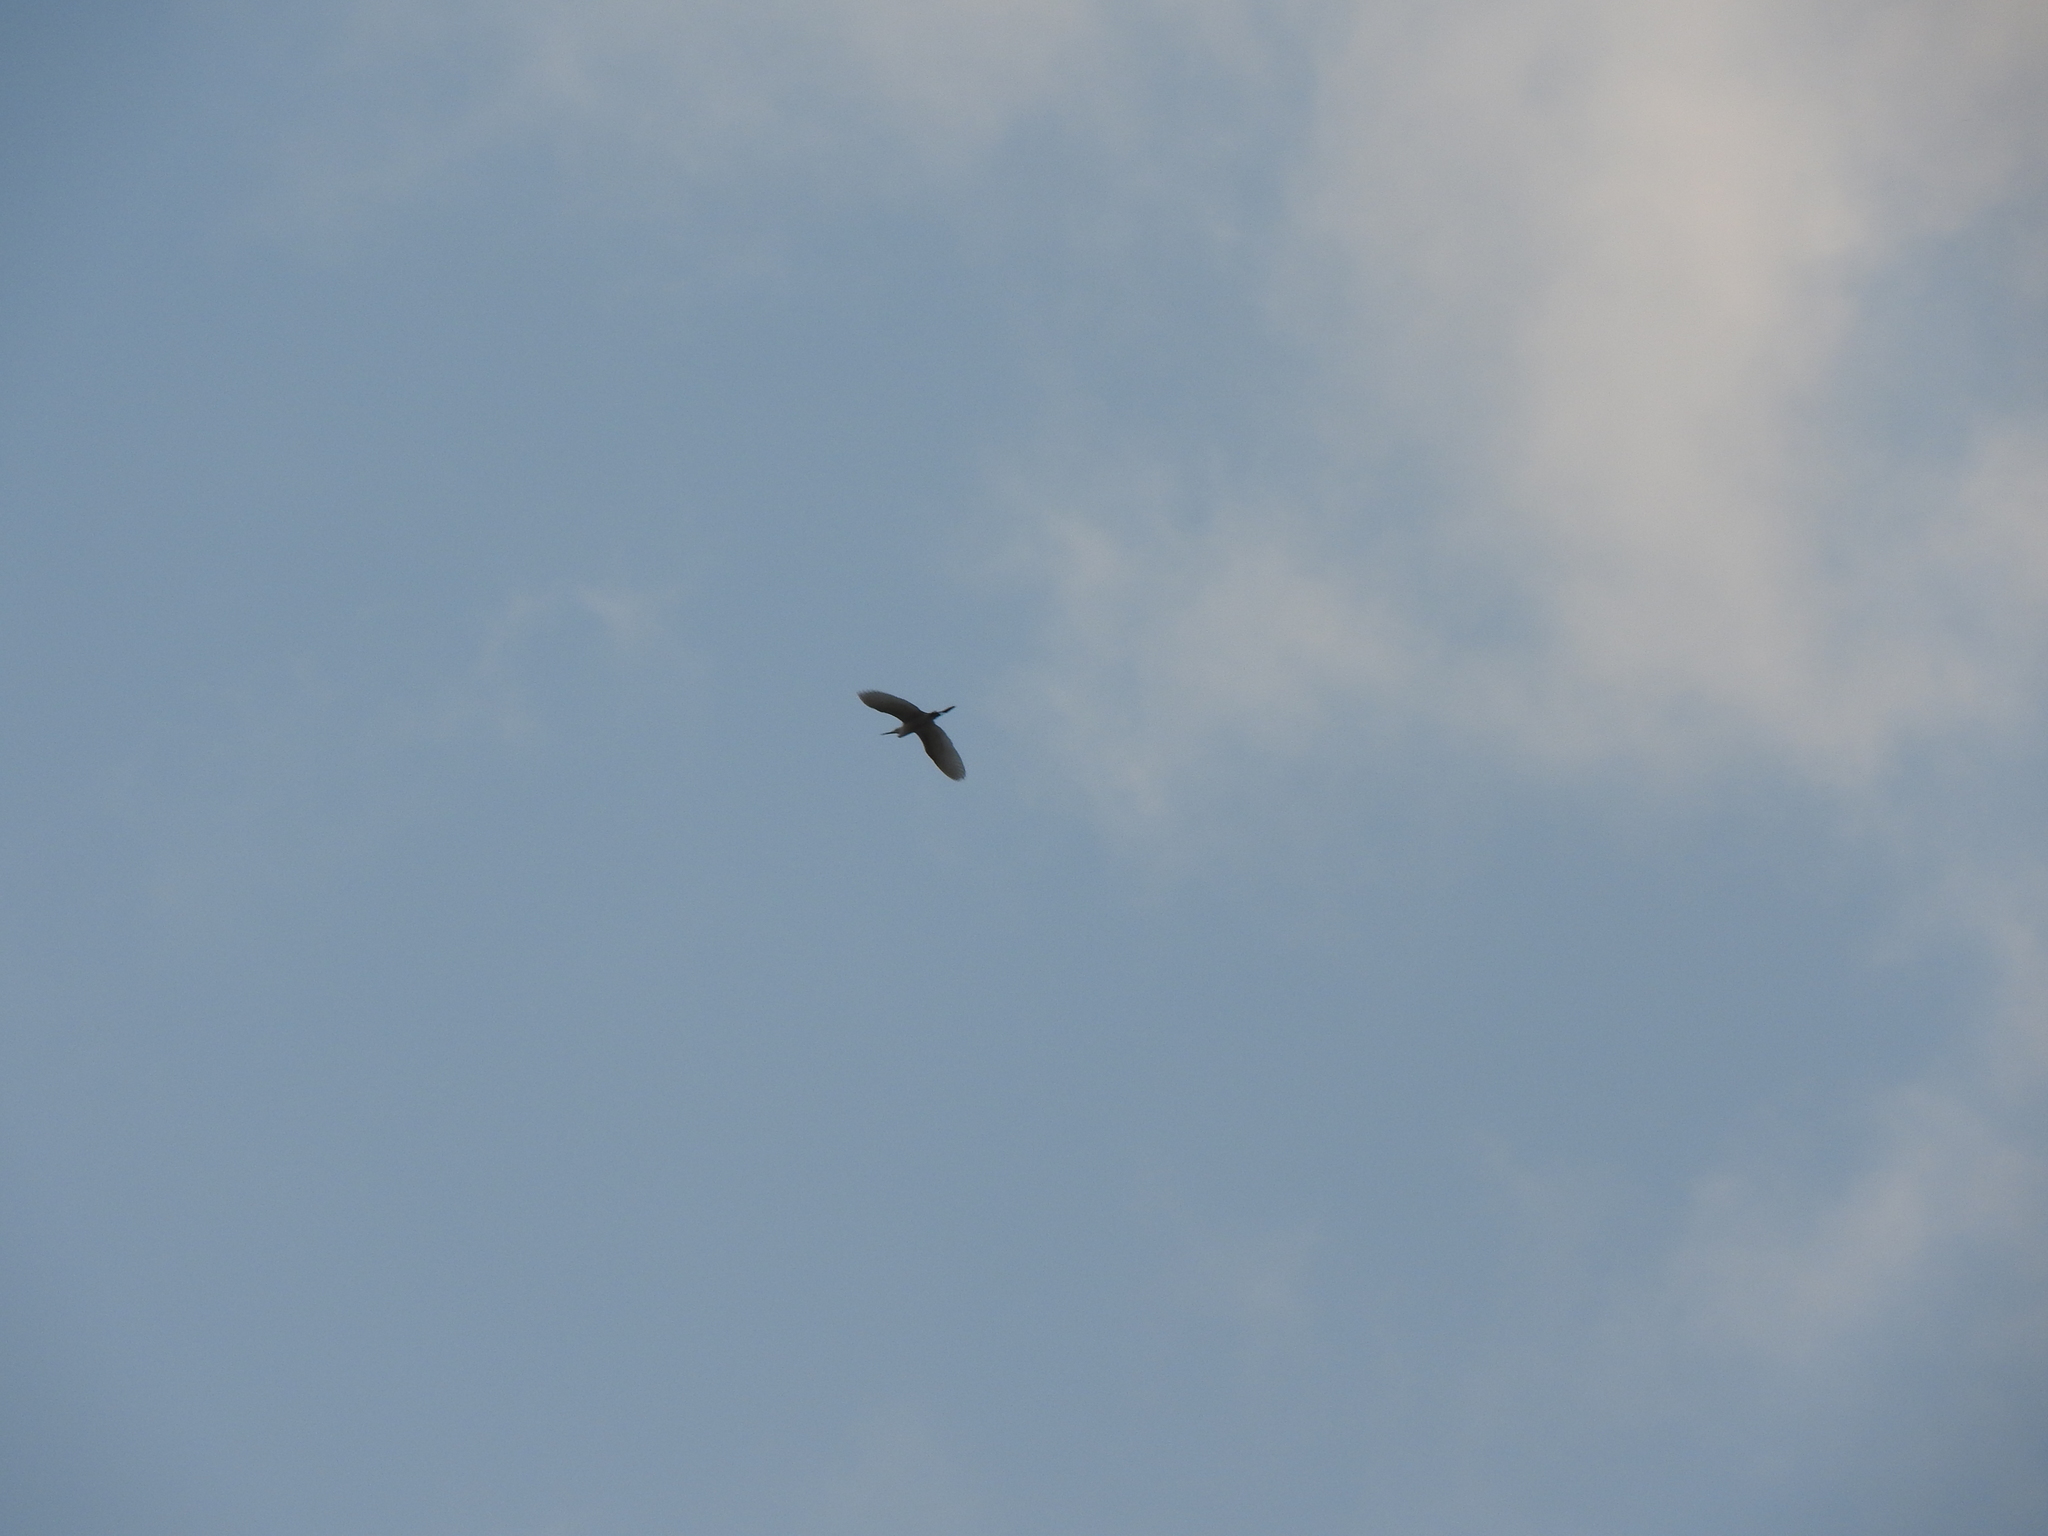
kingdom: Animalia
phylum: Chordata
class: Aves
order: Pelecaniformes
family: Ardeidae
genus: Ardea
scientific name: Ardea alba
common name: Great egret
